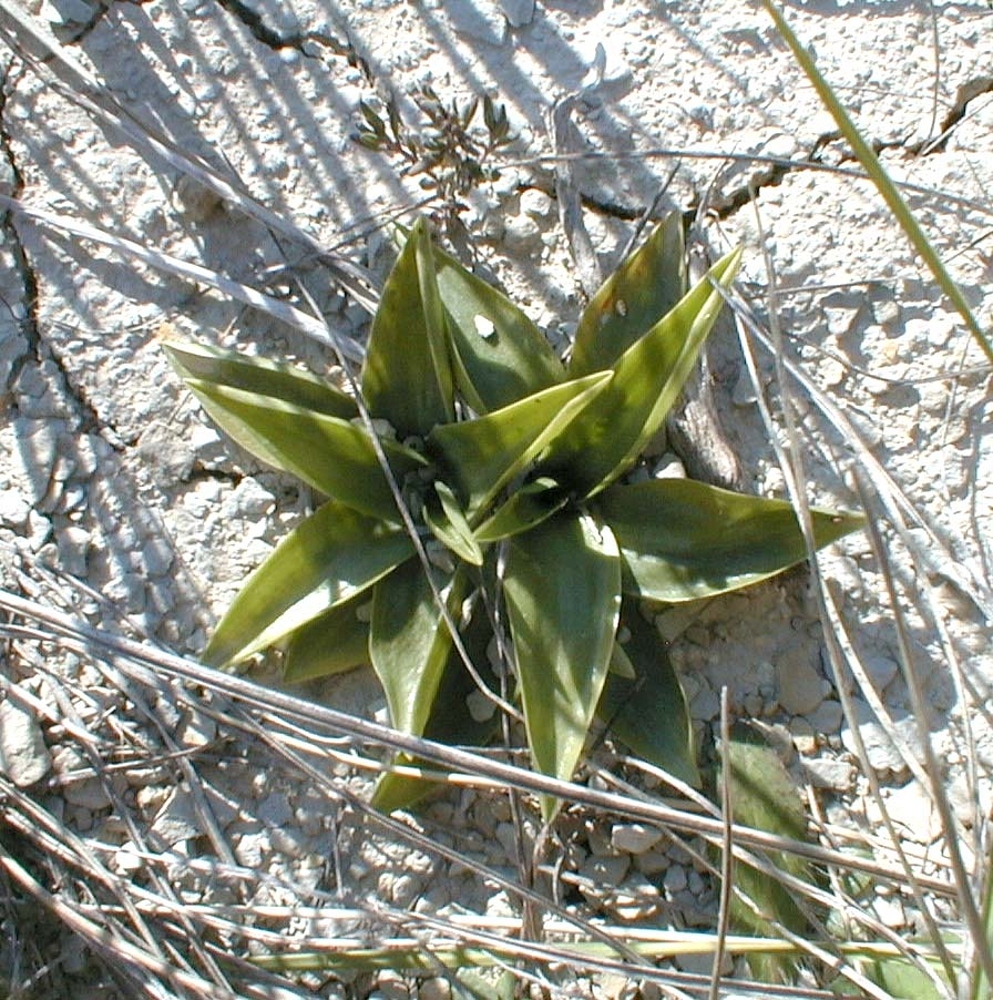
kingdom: Plantae
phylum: Tracheophyta
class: Liliopsida
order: Asparagales
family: Orchidaceae
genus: Spiranthes
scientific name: Spiranthes spiralis
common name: Autumn lady's-tresses
